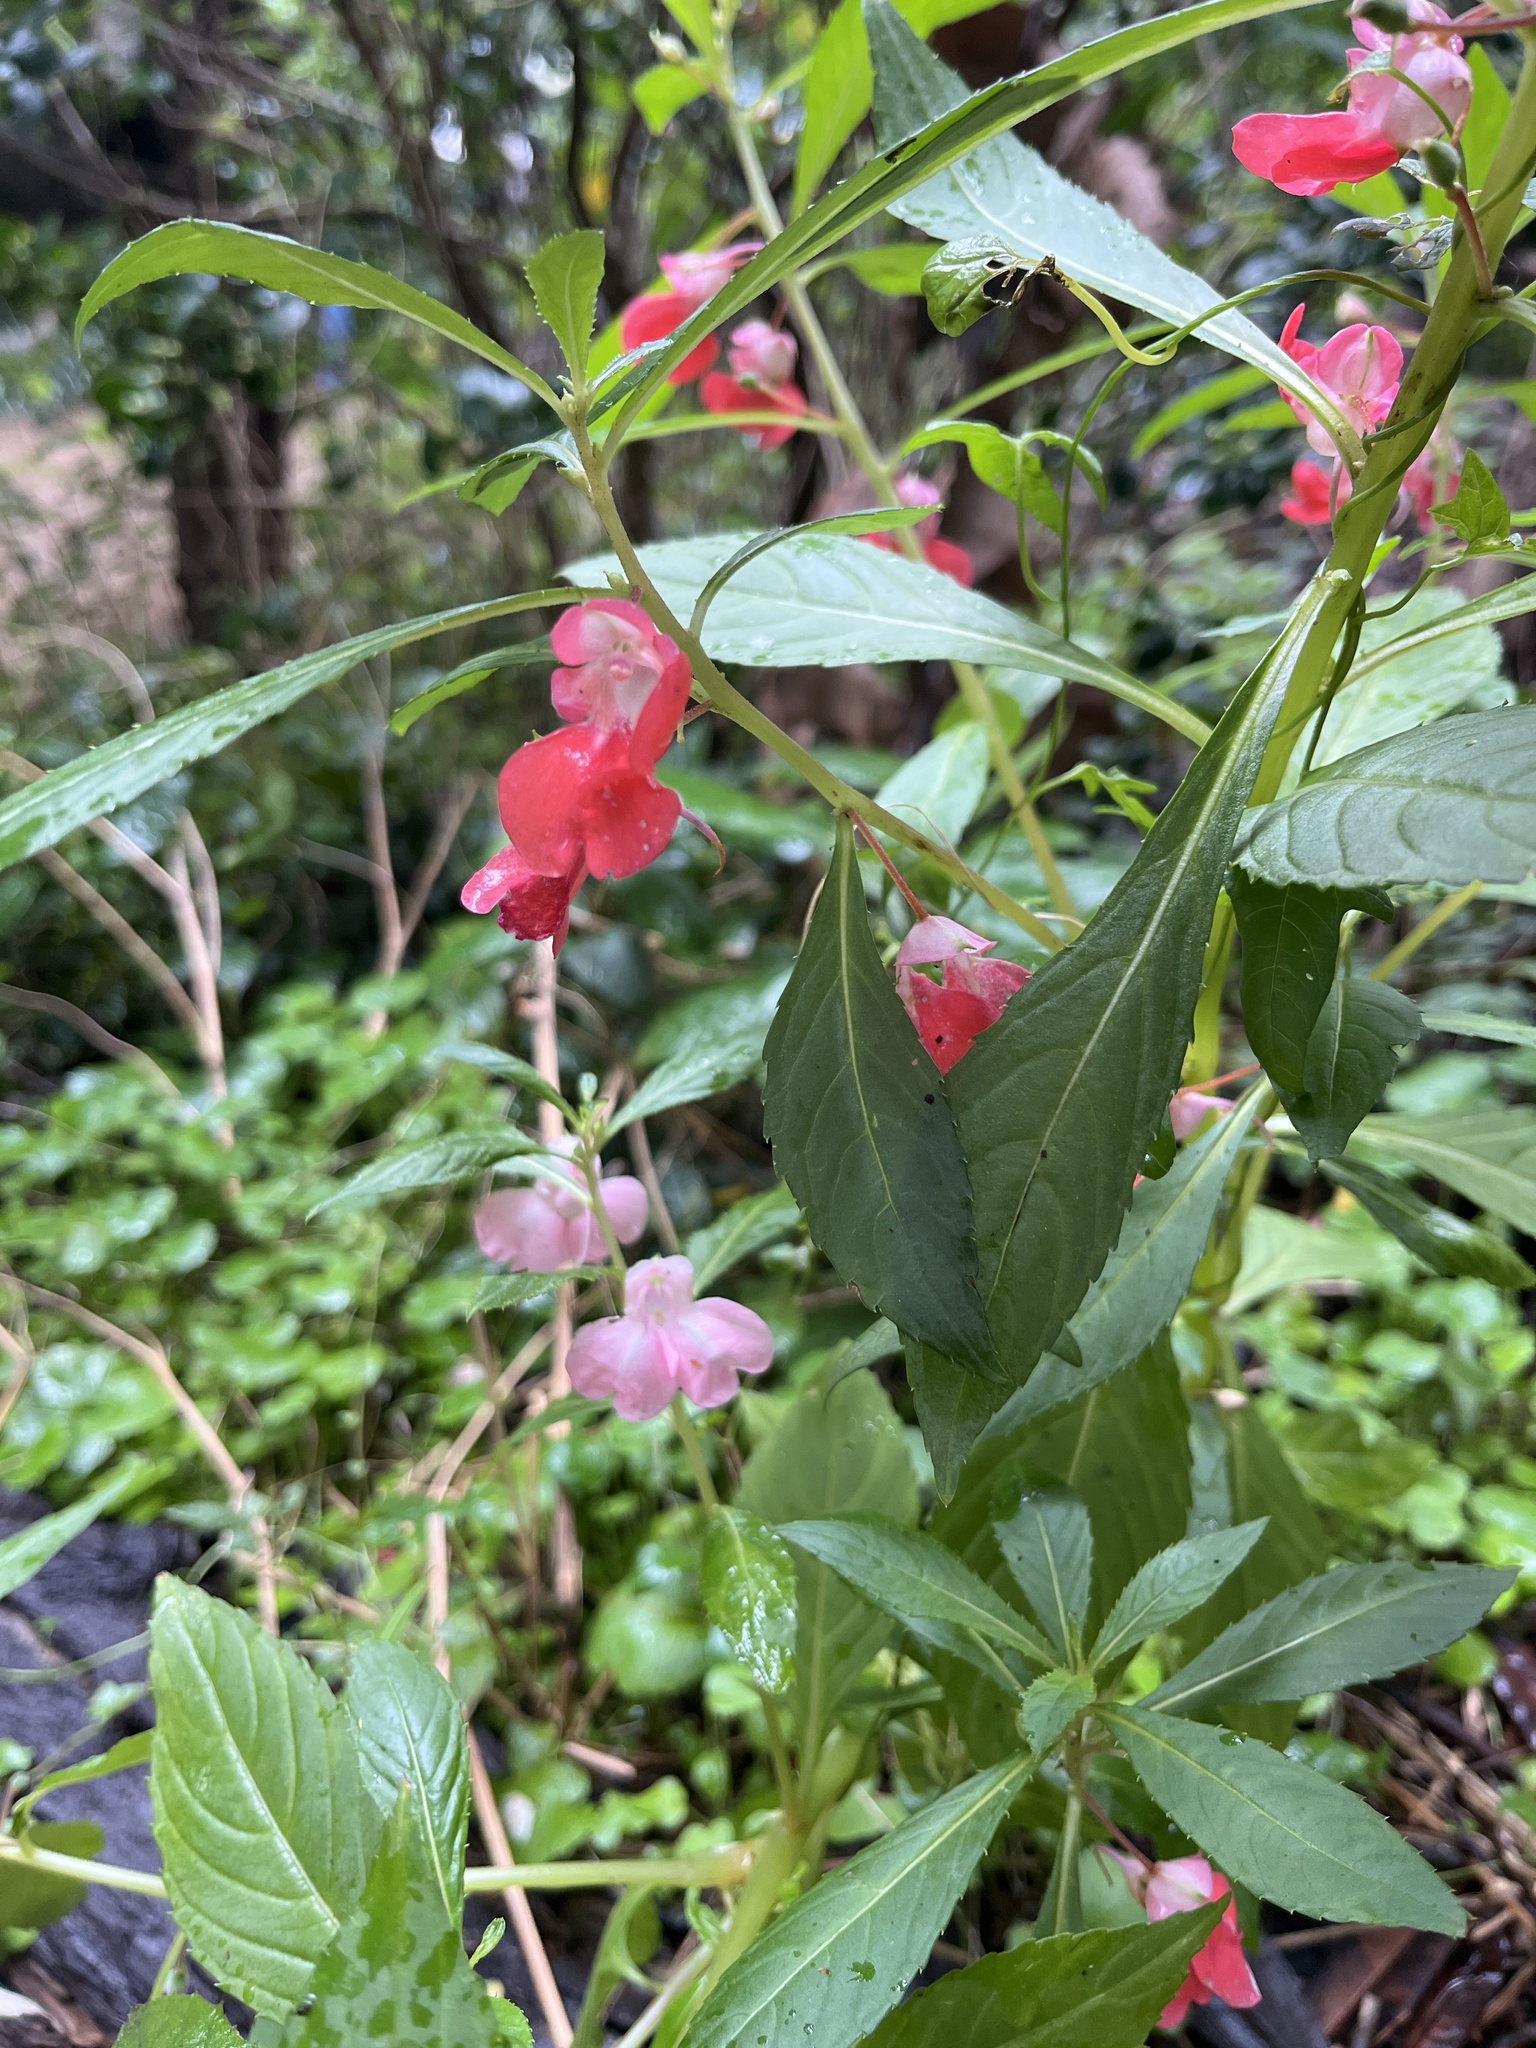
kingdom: Plantae
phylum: Tracheophyta
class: Magnoliopsida
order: Ericales
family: Balsaminaceae
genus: Impatiens
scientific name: Impatiens balsamina
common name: Balsam
